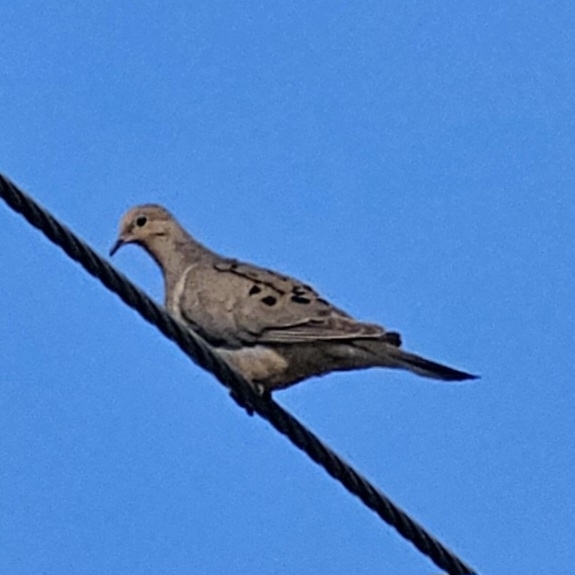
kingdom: Animalia
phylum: Chordata
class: Aves
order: Columbiformes
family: Columbidae
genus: Zenaida
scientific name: Zenaida macroura
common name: Mourning dove
